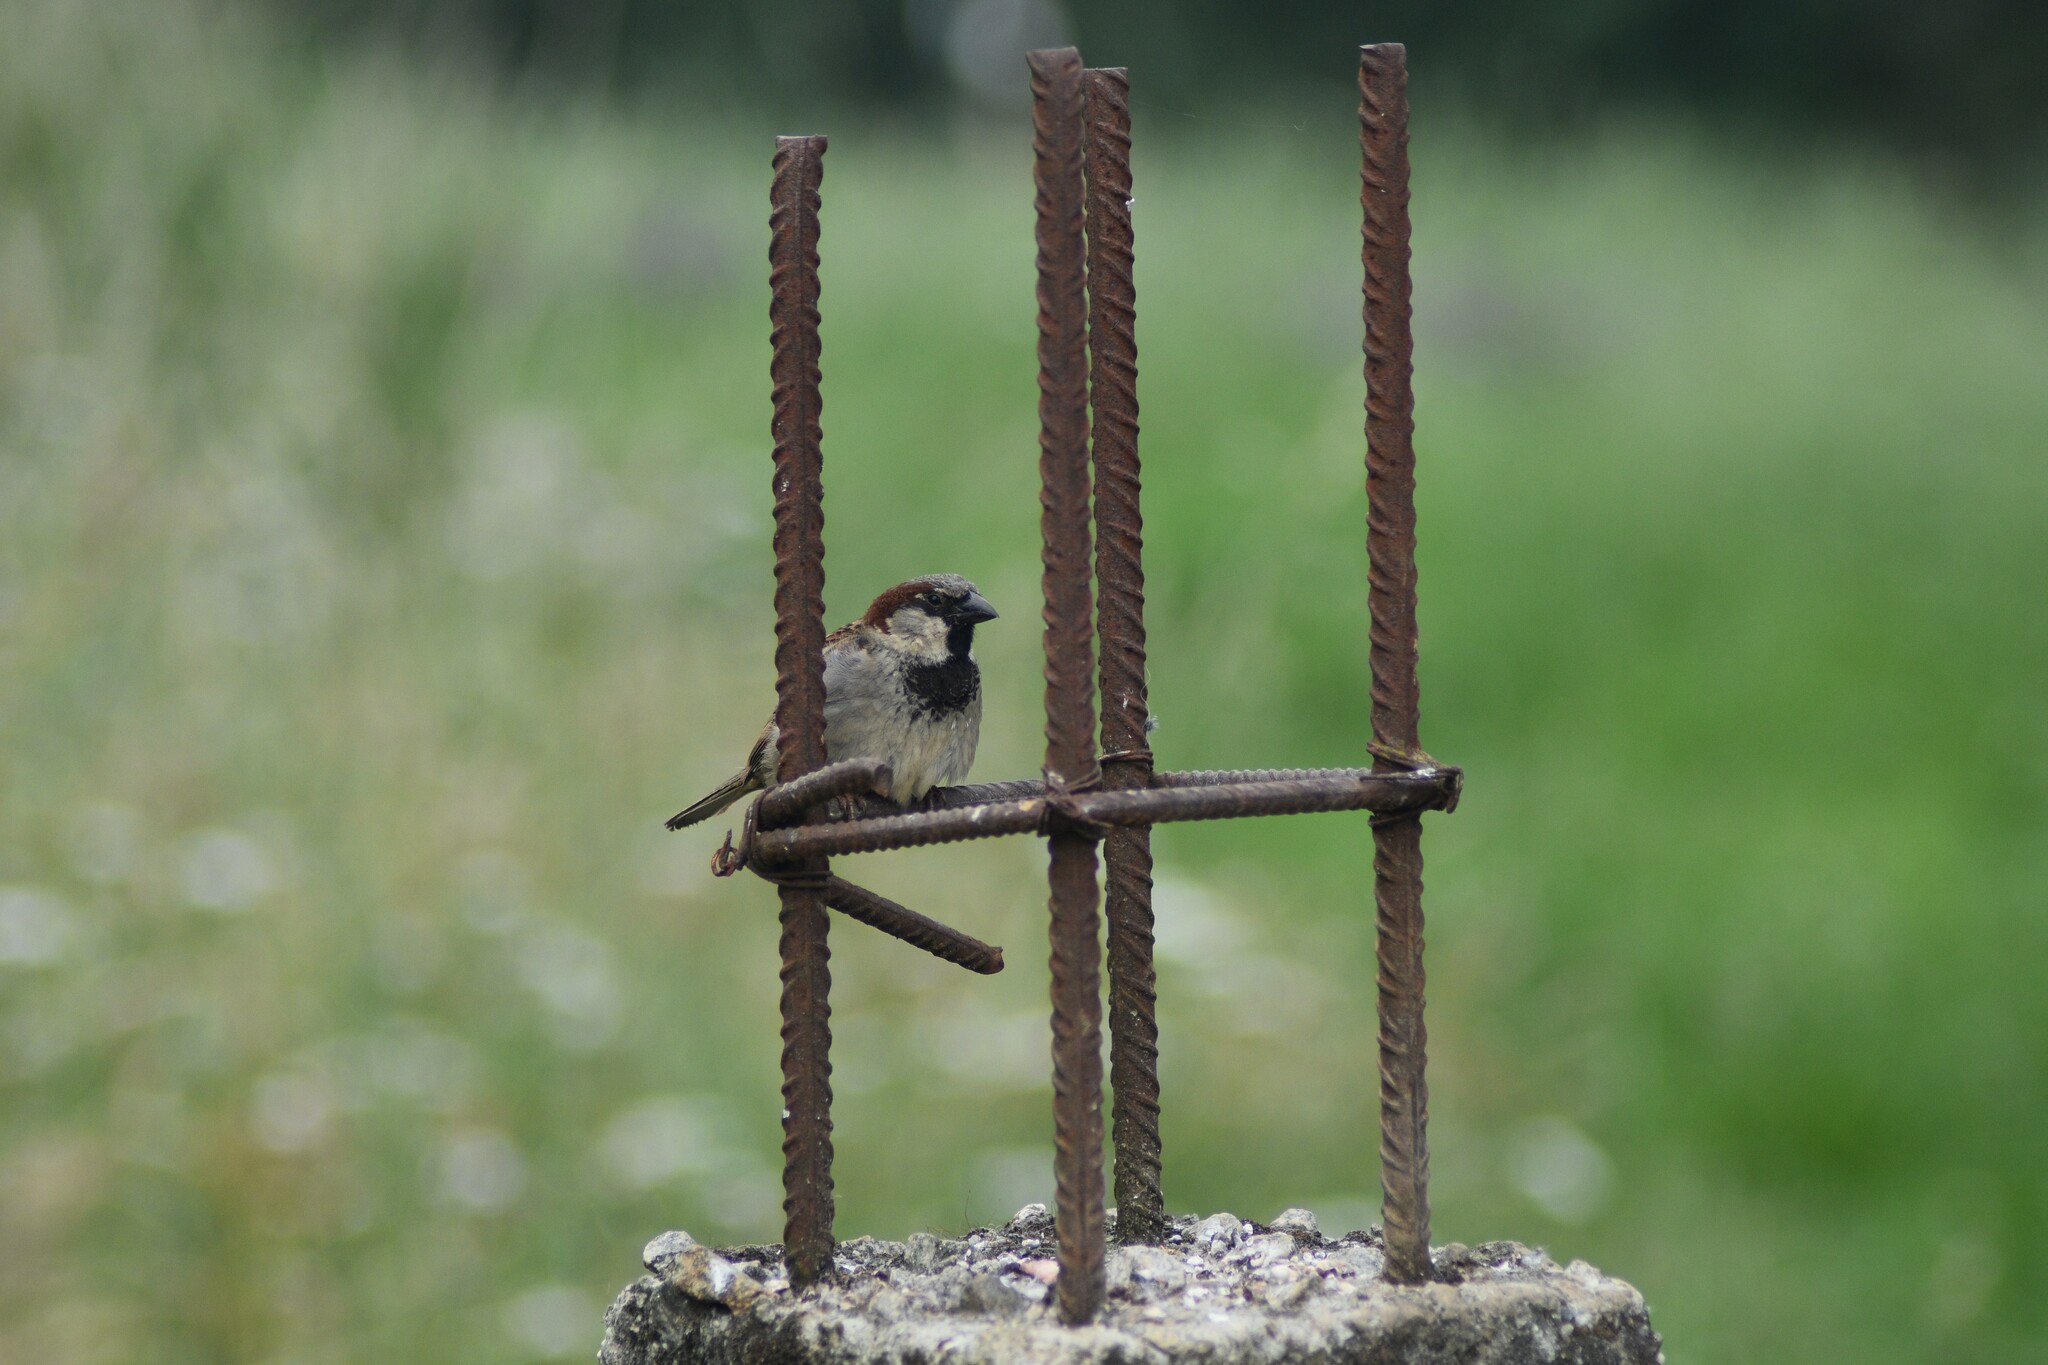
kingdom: Animalia
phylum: Chordata
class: Aves
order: Passeriformes
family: Passeridae
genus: Passer
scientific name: Passer domesticus
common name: House sparrow
